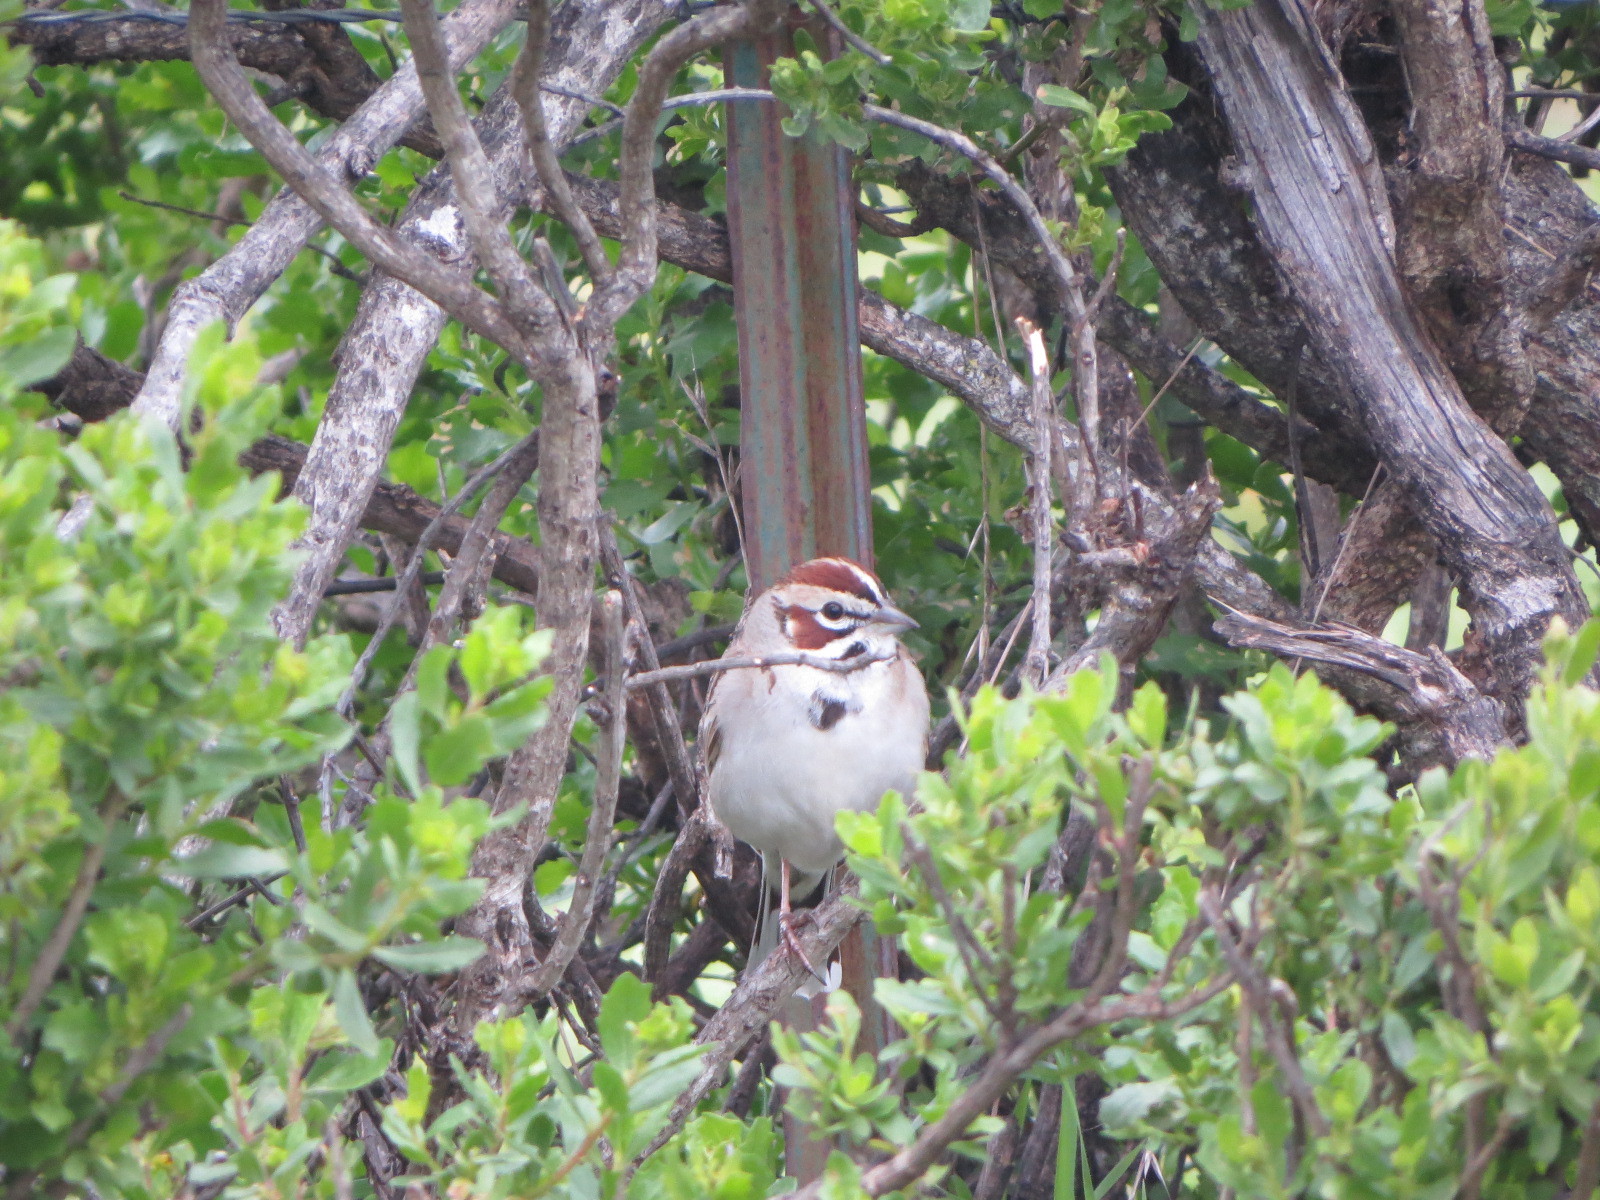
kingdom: Animalia
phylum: Chordata
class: Aves
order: Passeriformes
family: Passerellidae
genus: Chondestes
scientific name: Chondestes grammacus
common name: Lark sparrow
